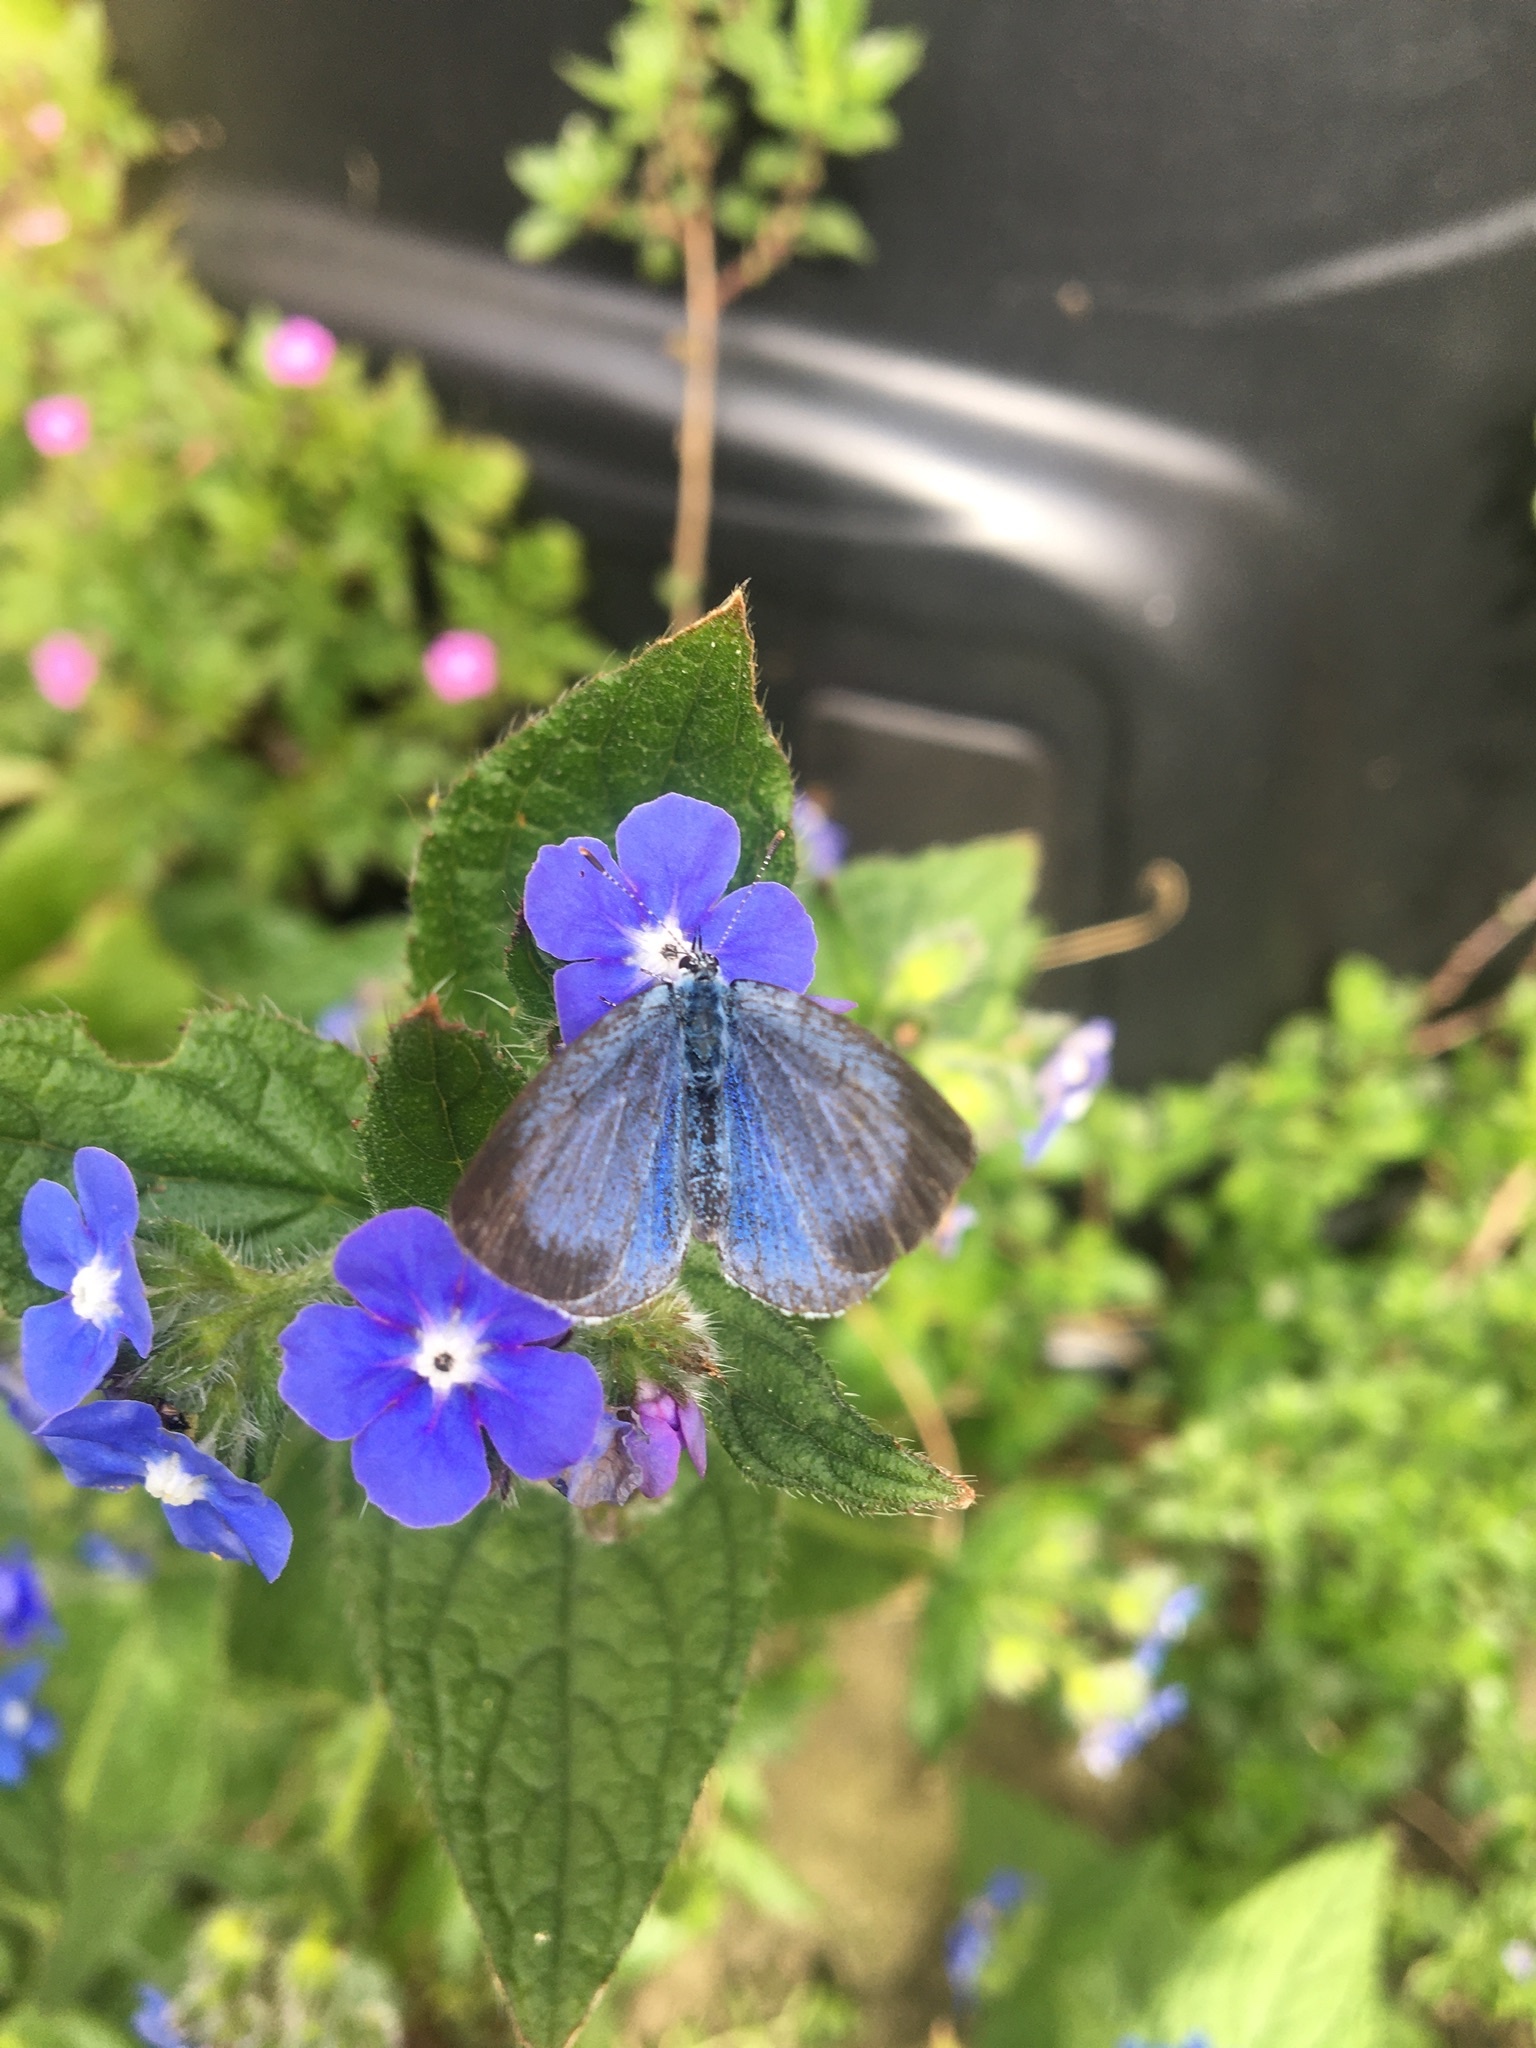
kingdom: Animalia
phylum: Arthropoda
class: Insecta
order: Lepidoptera
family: Lycaenidae
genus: Celastrina
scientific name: Celastrina argiolus
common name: Holly blue
